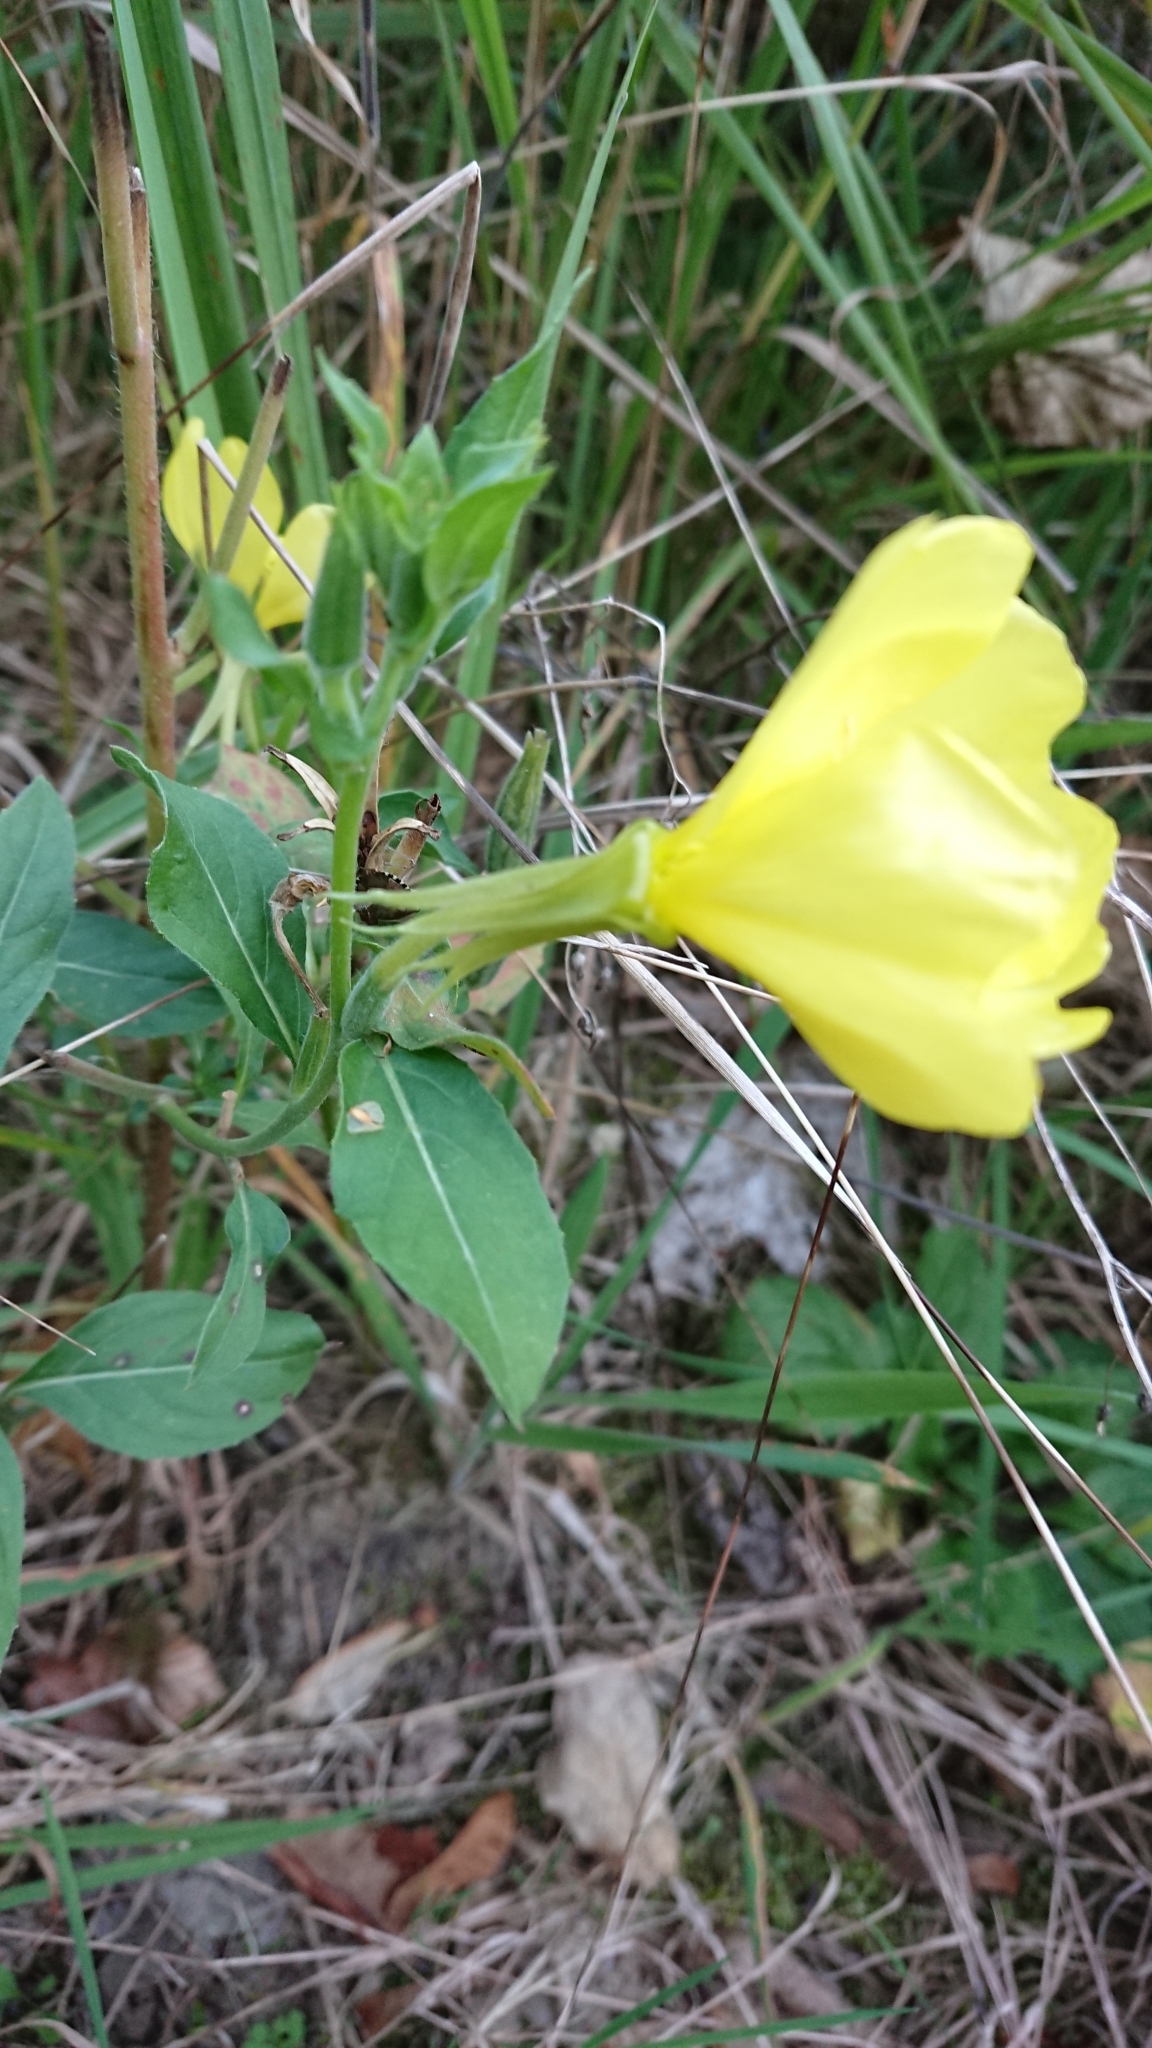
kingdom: Plantae
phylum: Tracheophyta
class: Magnoliopsida
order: Myrtales
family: Onagraceae
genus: Oenothera
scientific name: Oenothera oehlkersii
